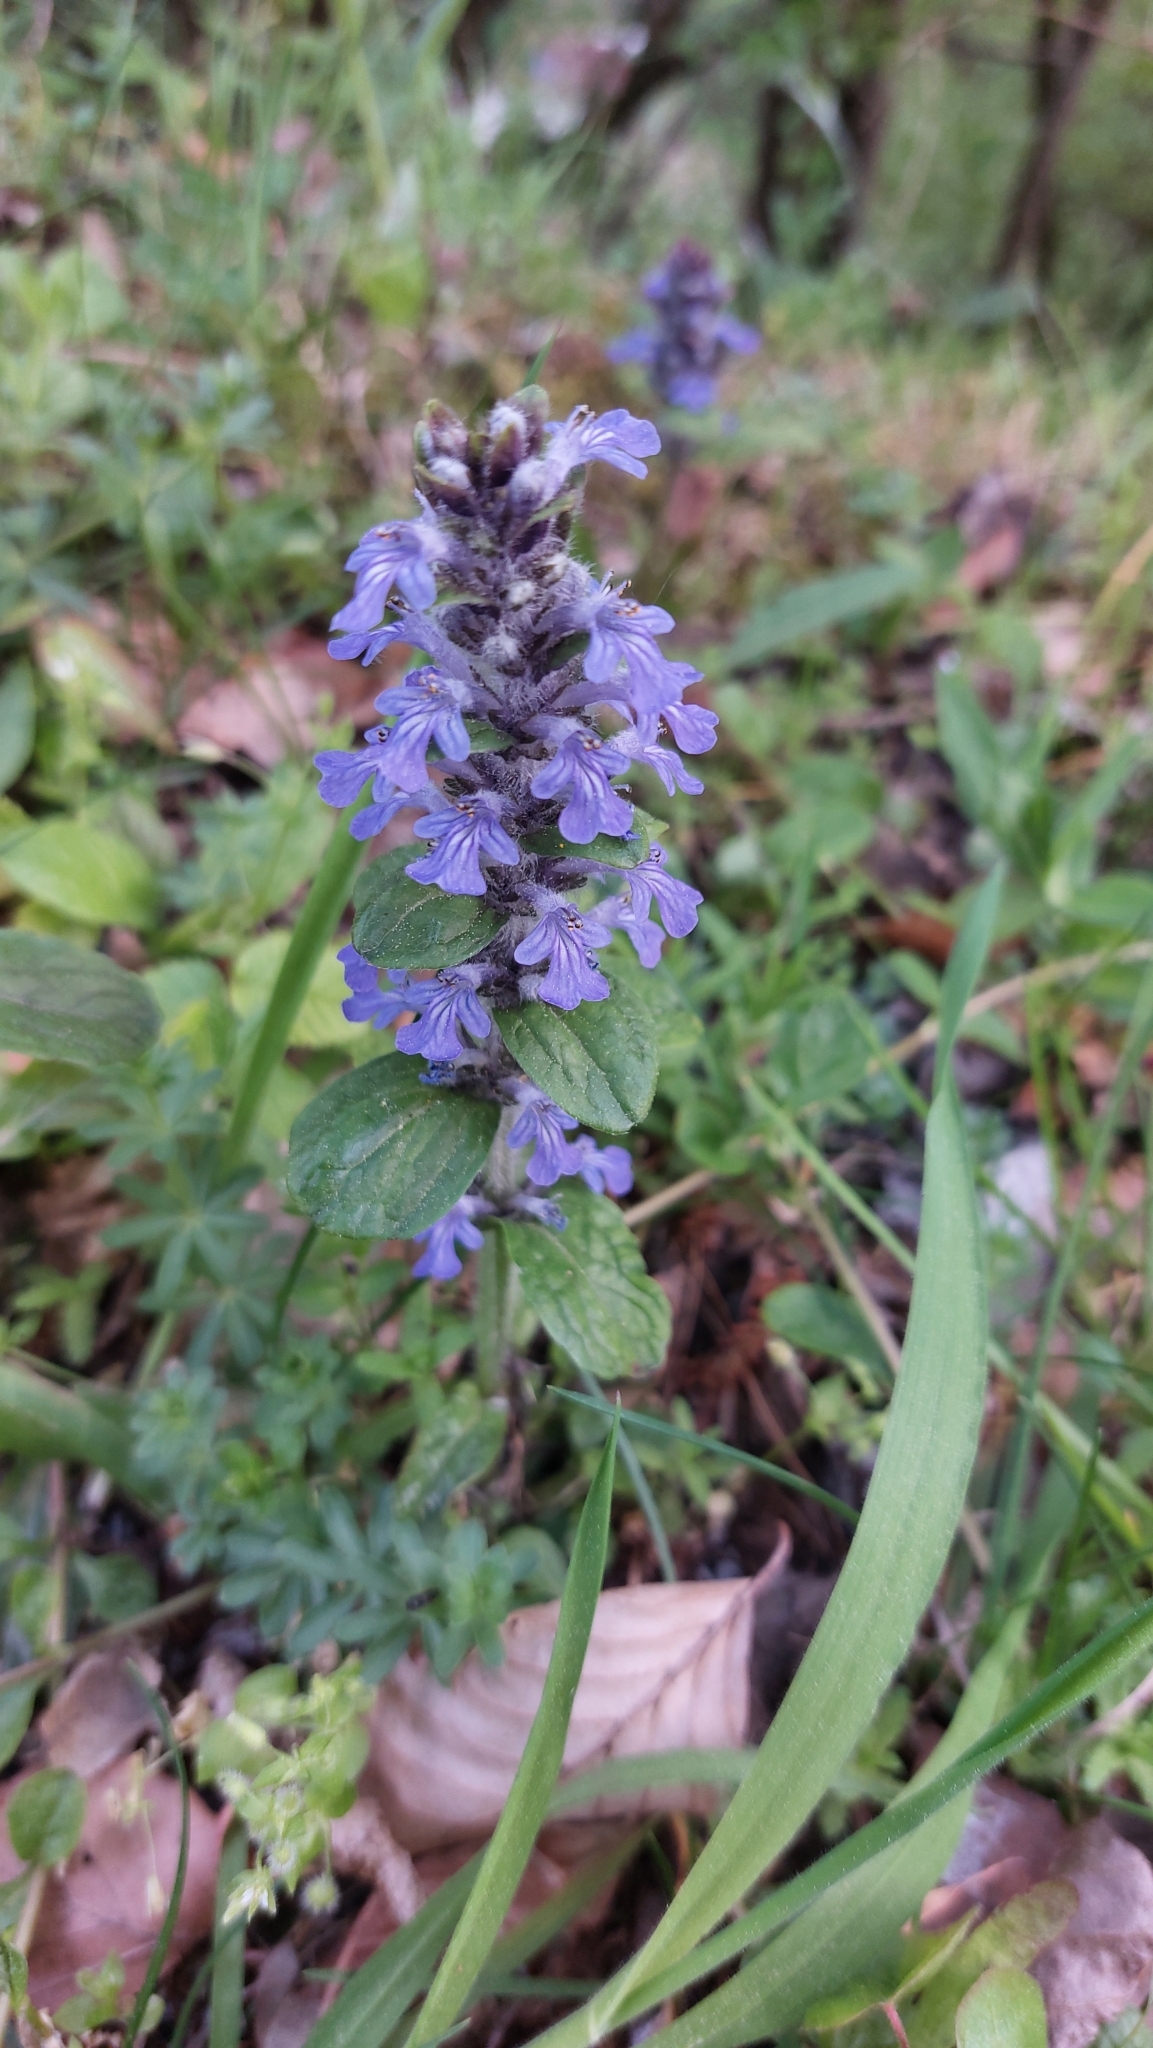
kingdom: Plantae
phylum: Tracheophyta
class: Magnoliopsida
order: Lamiales
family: Lamiaceae
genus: Ajuga
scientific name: Ajuga reptans
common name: Bugle
